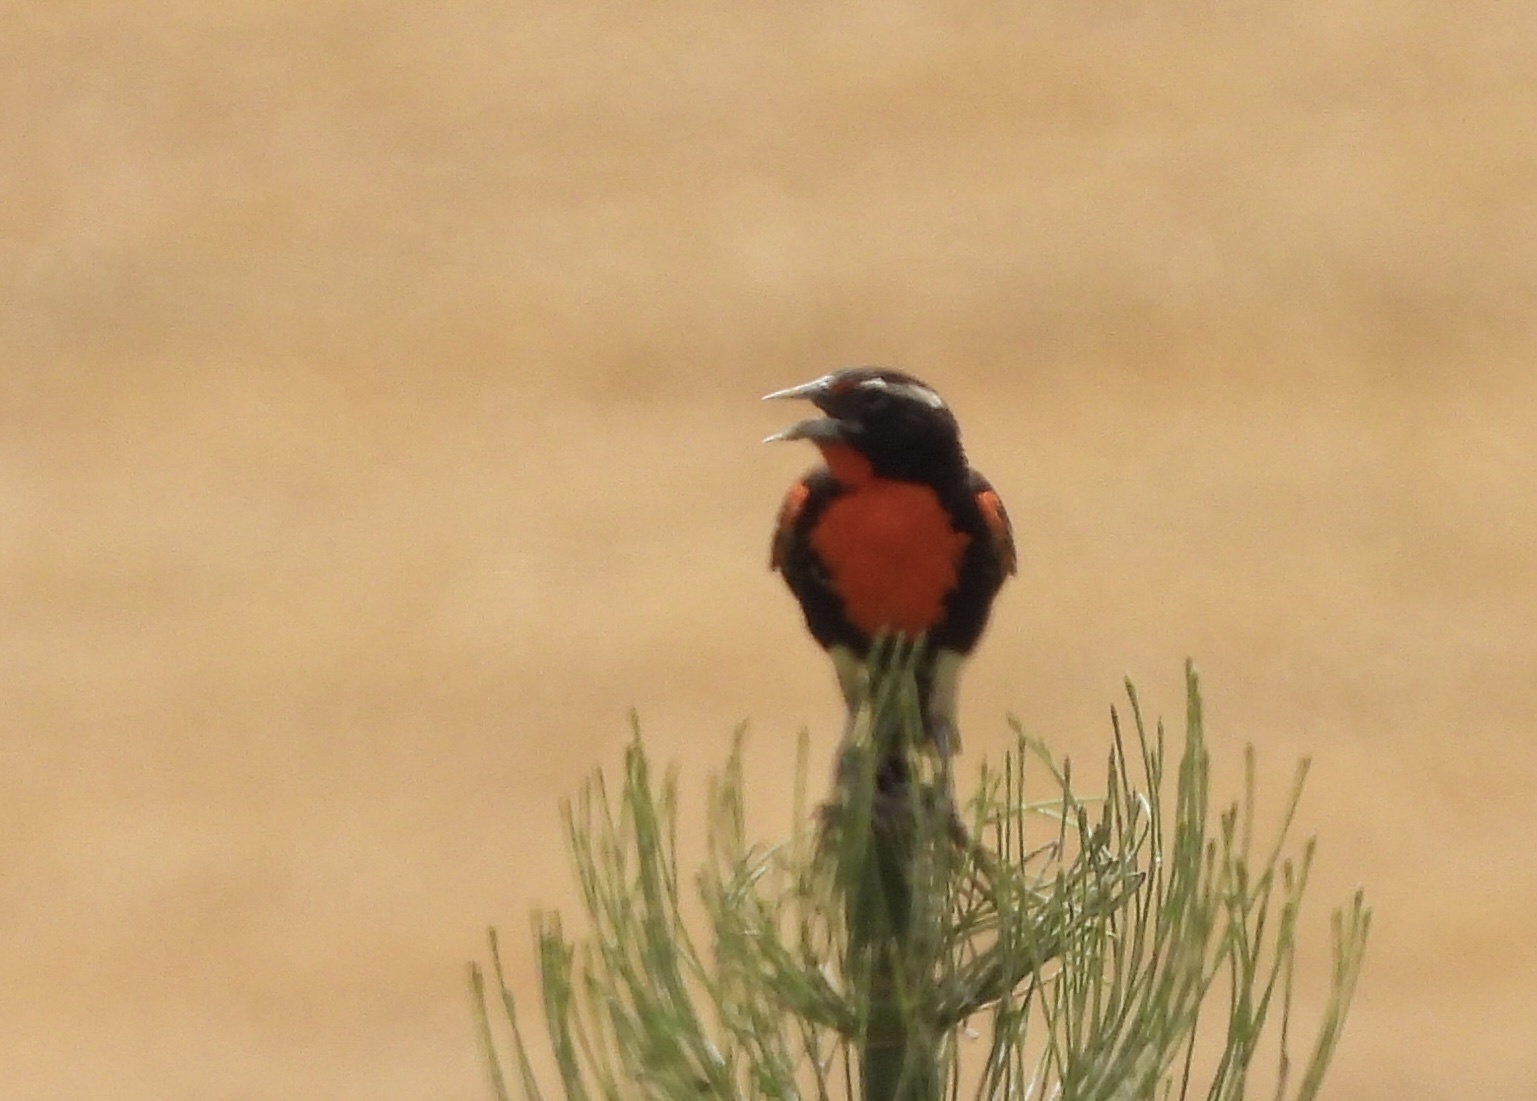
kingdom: Animalia
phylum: Chordata
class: Aves
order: Passeriformes
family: Icteridae
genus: Sturnella
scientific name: Sturnella bellicosa
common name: Peruvian meadowlark
